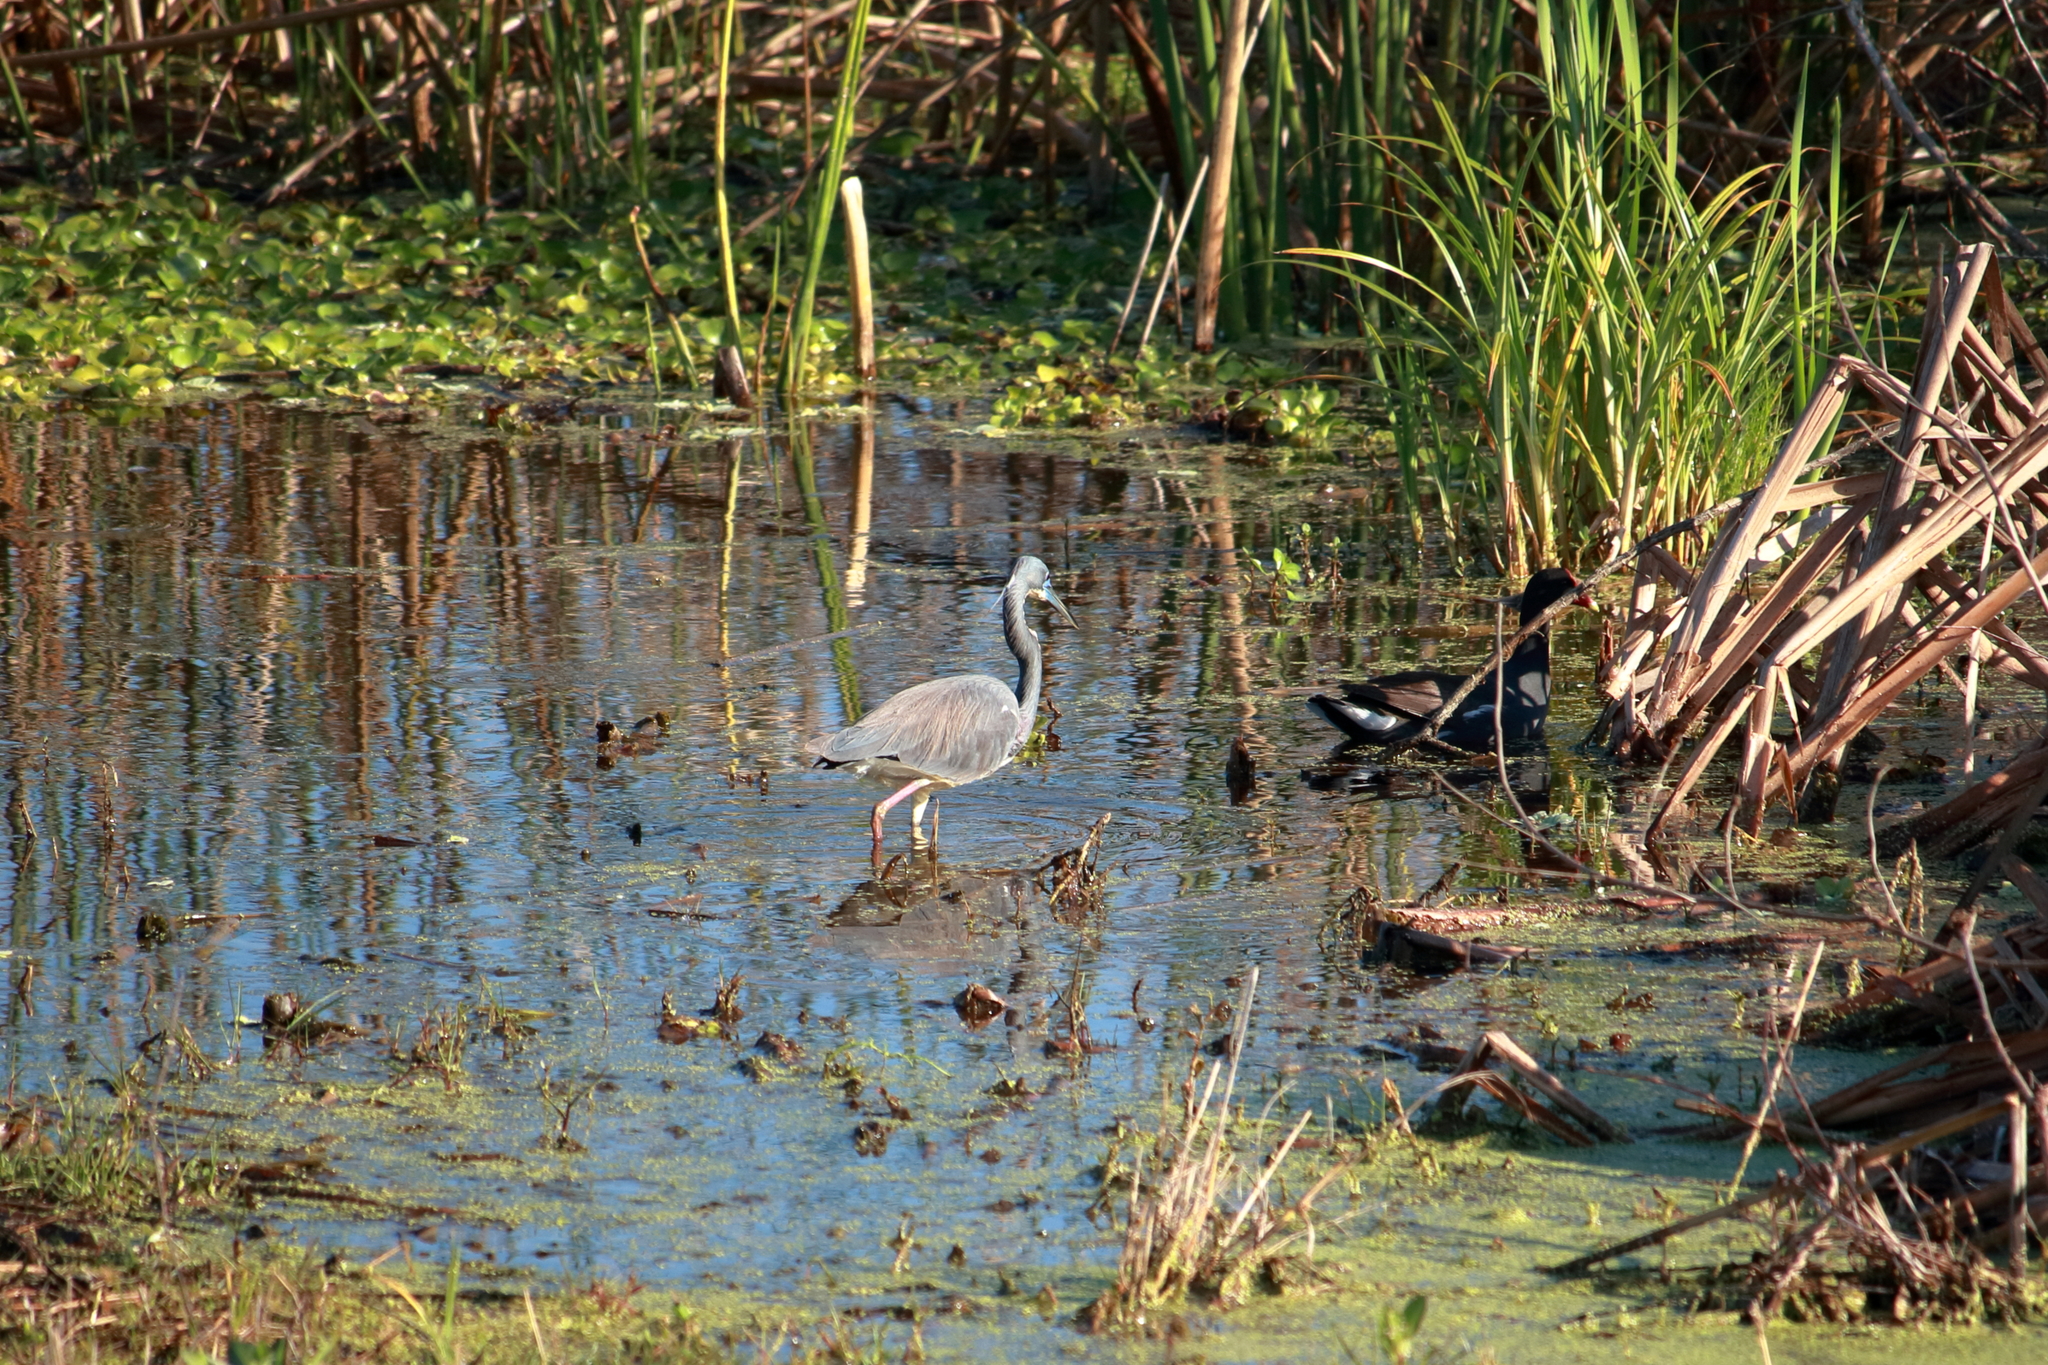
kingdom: Animalia
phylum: Chordata
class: Aves
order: Pelecaniformes
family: Ardeidae
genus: Egretta
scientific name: Egretta tricolor
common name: Tricolored heron
